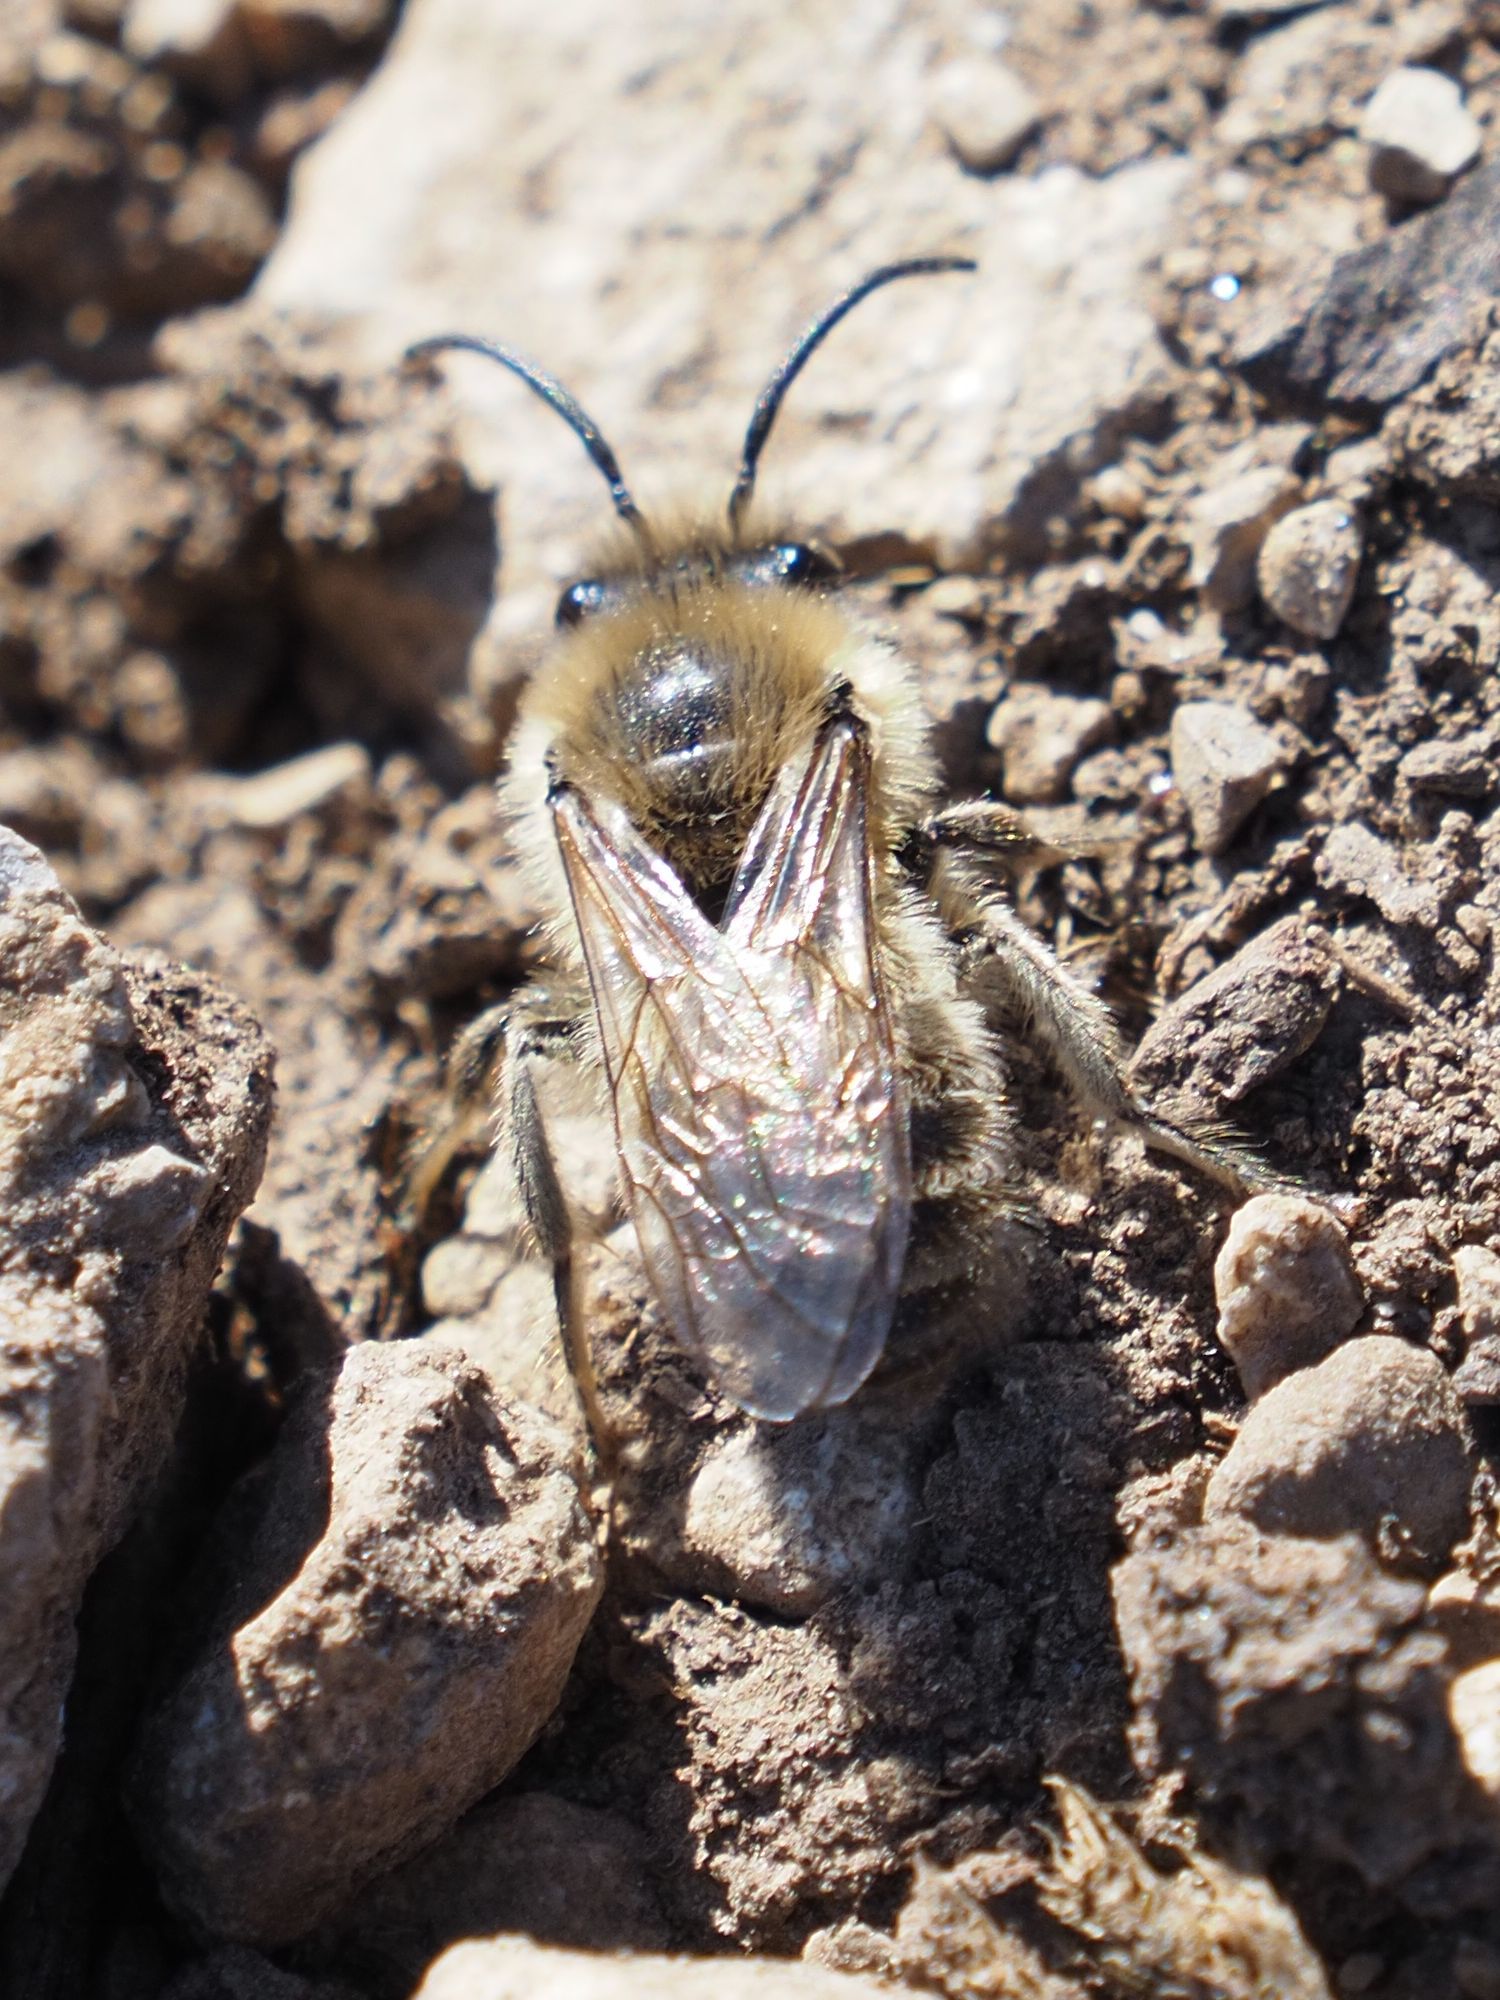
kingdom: Animalia
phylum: Arthropoda
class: Insecta
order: Hymenoptera
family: Colletidae
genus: Colletes
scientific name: Colletes cunicularius
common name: Early colletes
